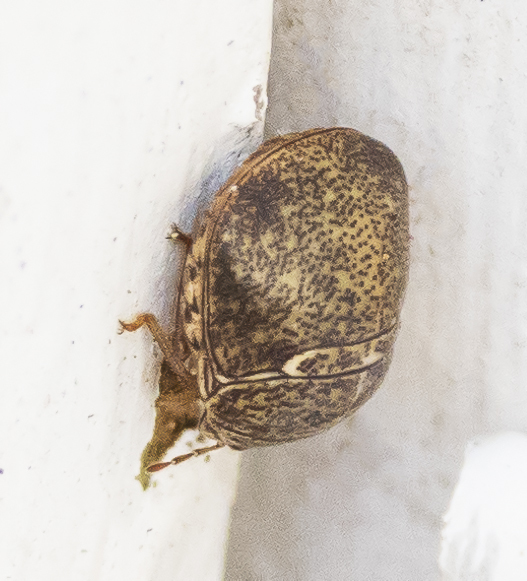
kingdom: Animalia
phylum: Arthropoda
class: Insecta
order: Hemiptera
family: Plataspidae
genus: Megacopta
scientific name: Megacopta cribraria
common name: Bean plataspid
